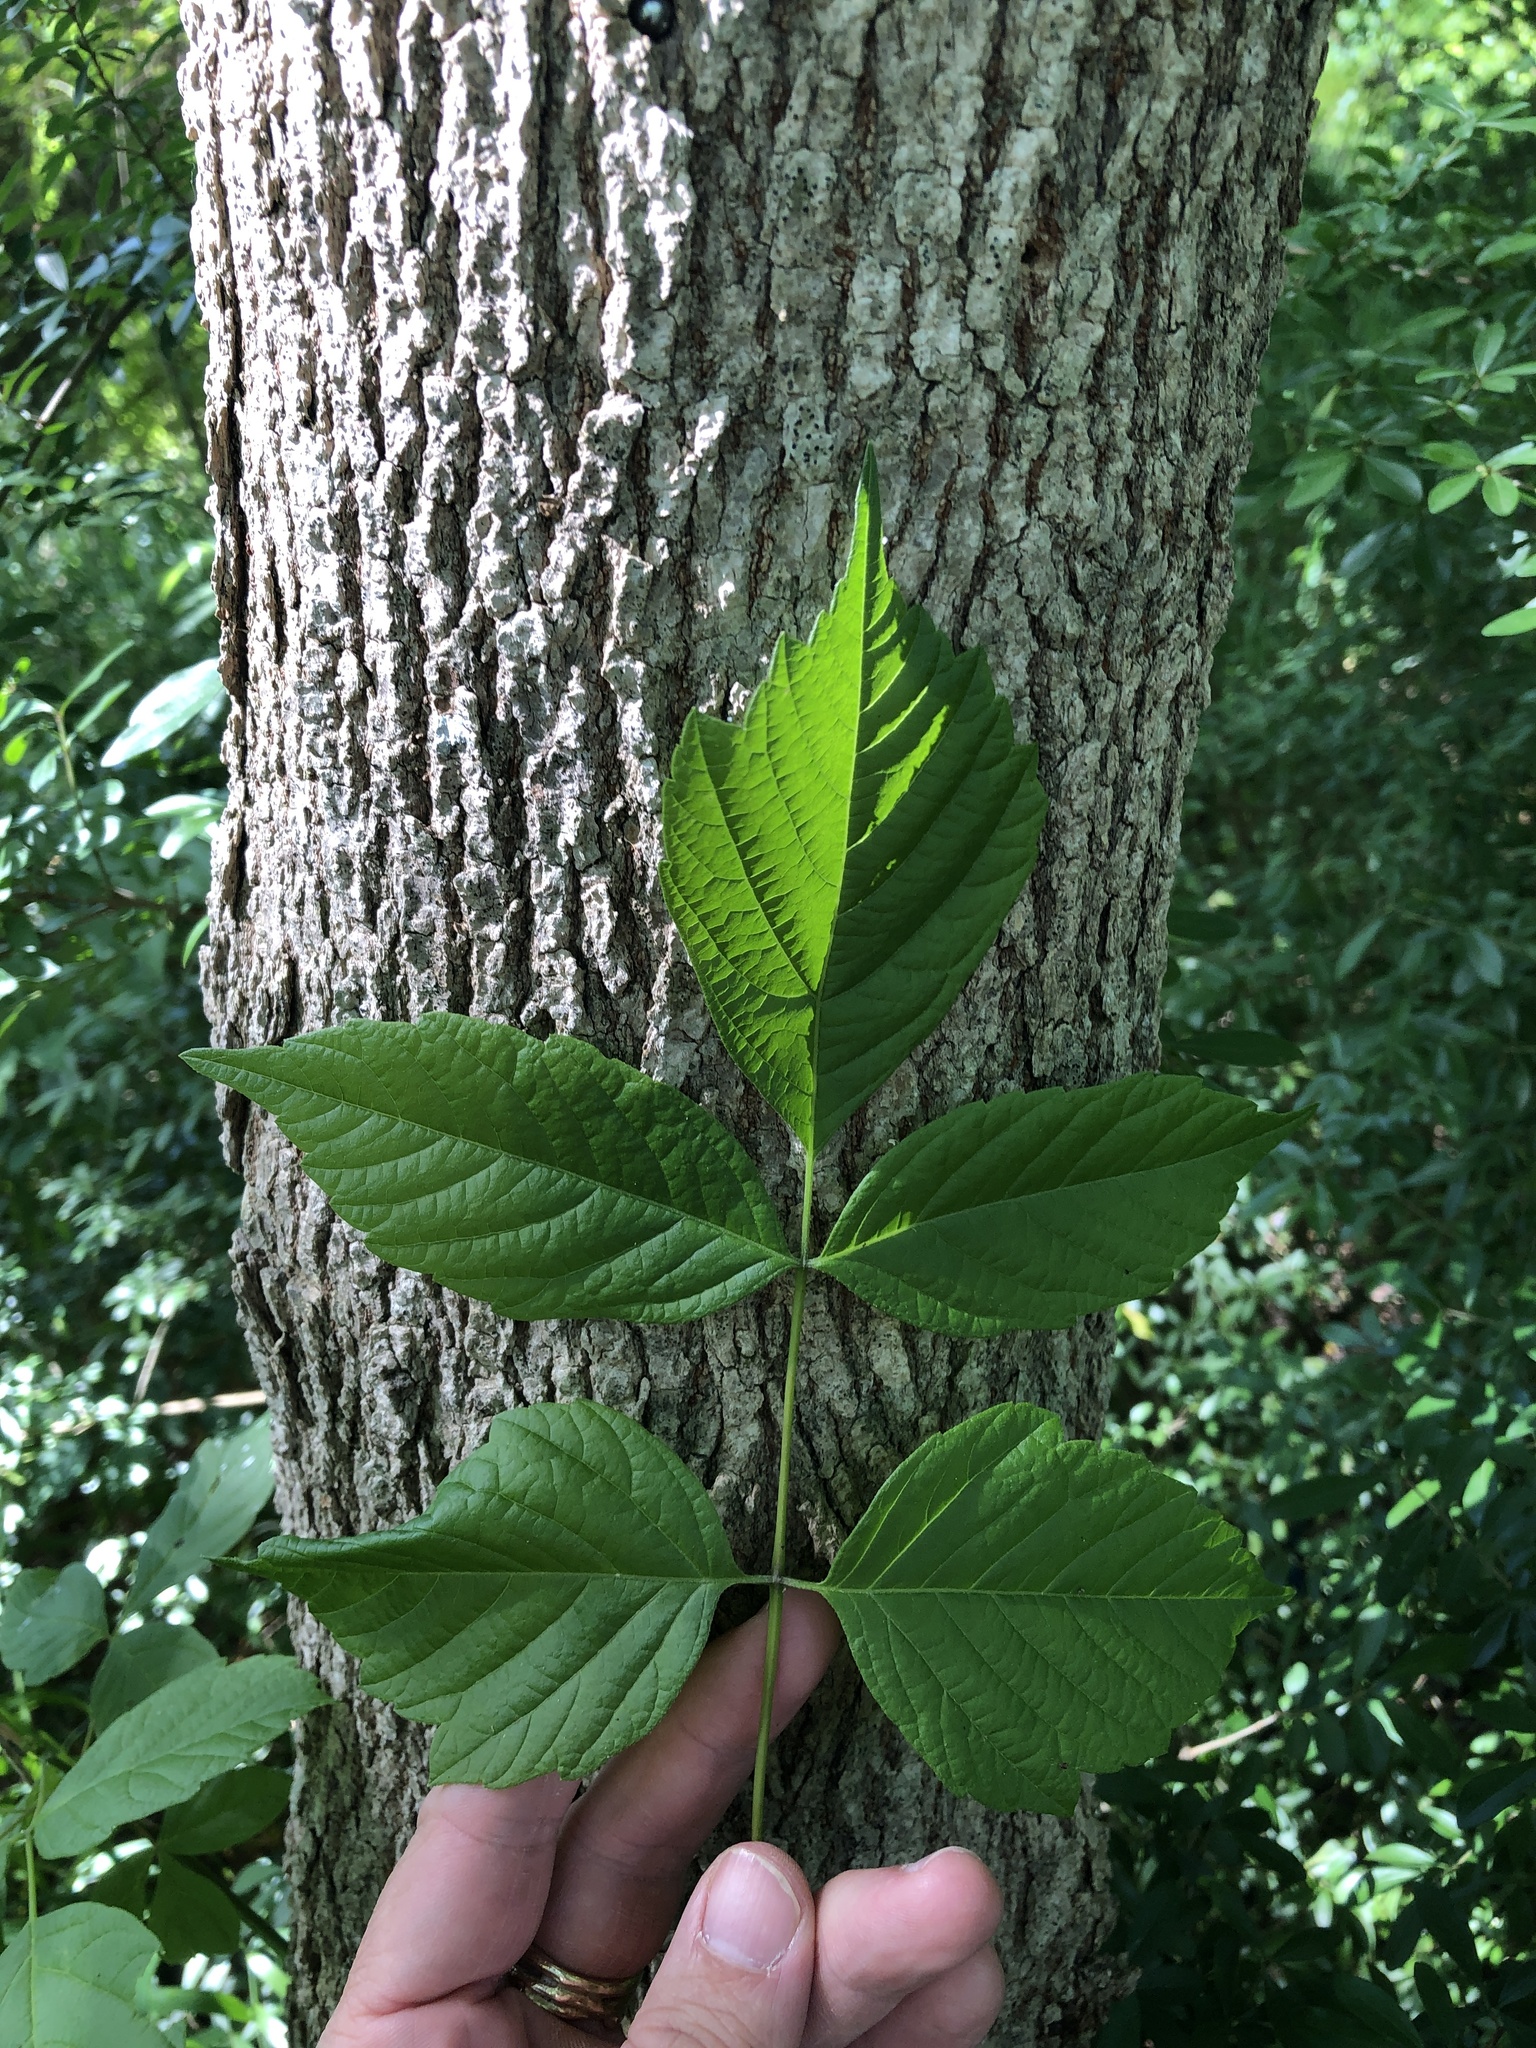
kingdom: Plantae
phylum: Tracheophyta
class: Magnoliopsida
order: Sapindales
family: Sapindaceae
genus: Acer
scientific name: Acer negundo
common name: Ashleaf maple
